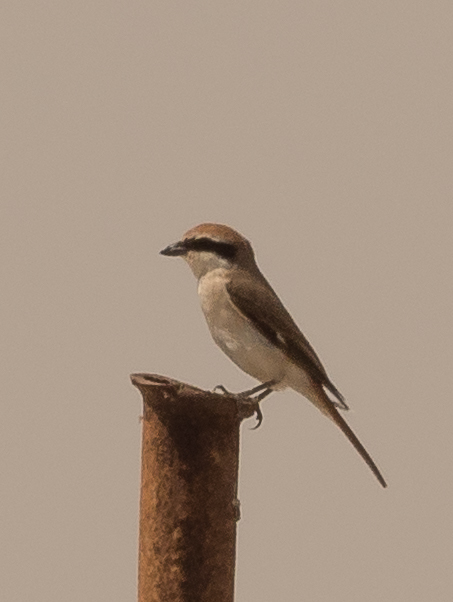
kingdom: Animalia
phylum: Chordata
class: Aves
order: Passeriformes
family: Laniidae
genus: Lanius
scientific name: Lanius phoenicuroides
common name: Red-tailed shrike
